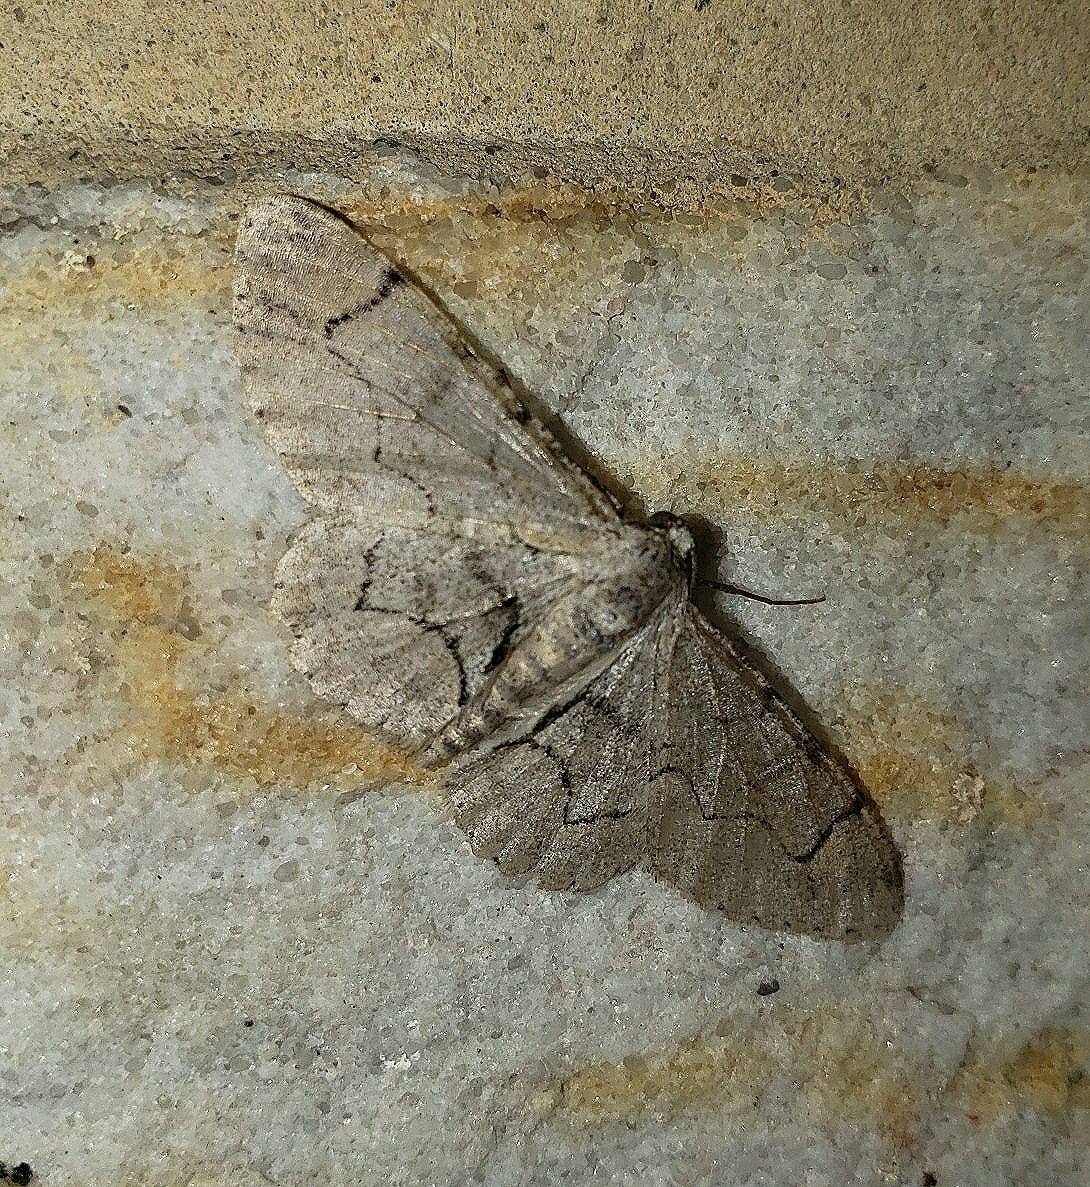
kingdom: Animalia
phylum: Arthropoda
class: Insecta
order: Lepidoptera
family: Geometridae
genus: Iridopsis
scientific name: Iridopsis larvaria
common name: Bent-line gray
